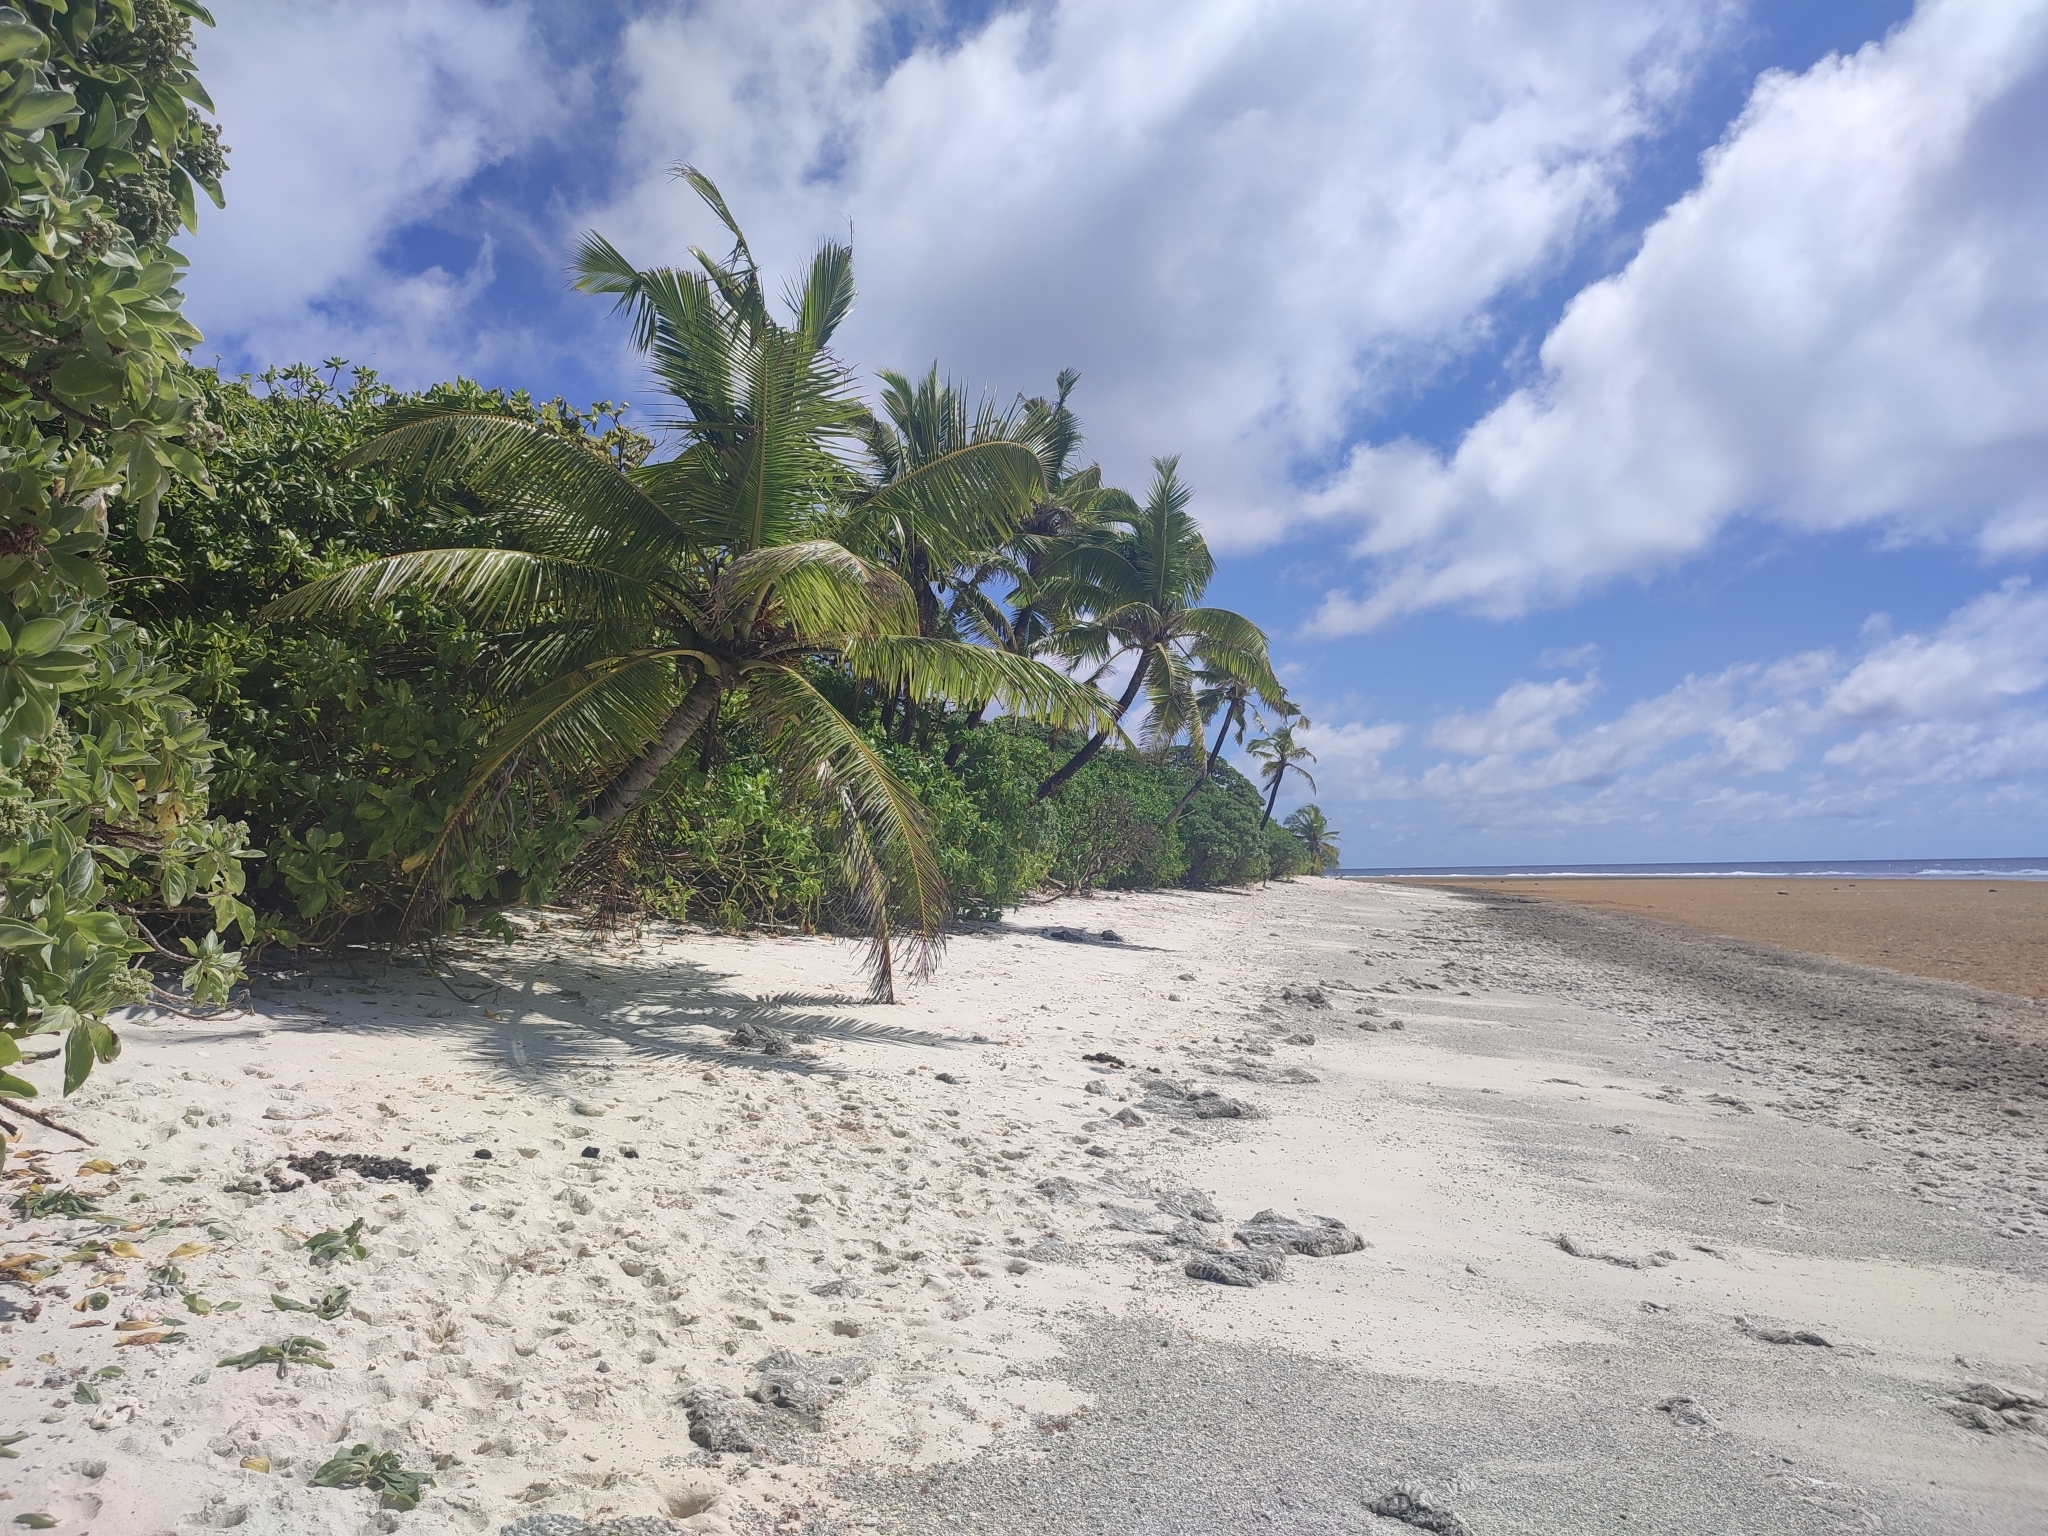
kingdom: Plantae
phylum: Tracheophyta
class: Liliopsida
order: Arecales
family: Arecaceae
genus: Cocos
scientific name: Cocos nucifera
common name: Coconut palm
